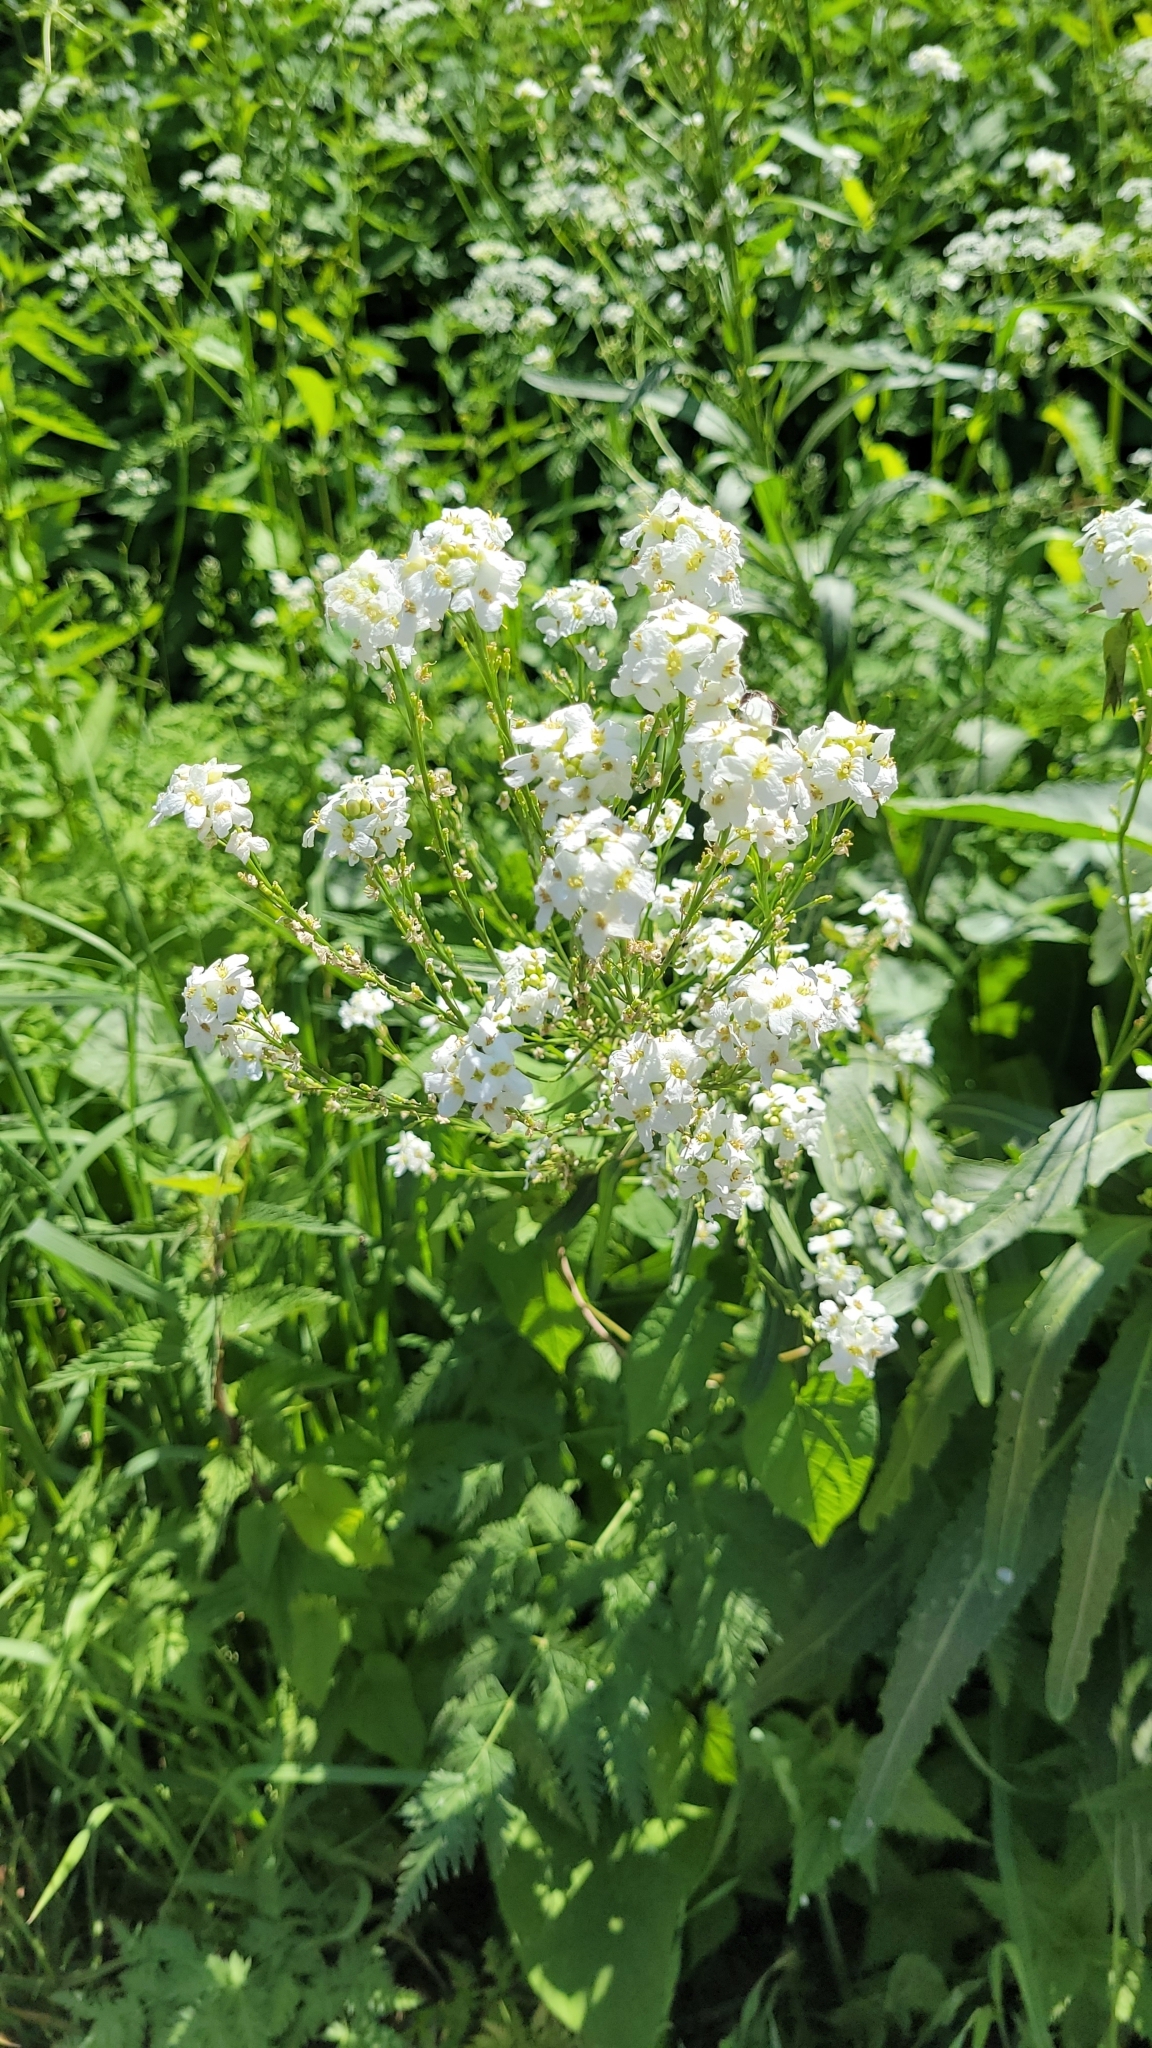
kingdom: Plantae
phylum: Tracheophyta
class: Magnoliopsida
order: Brassicales
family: Brassicaceae
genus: Armoracia
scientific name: Armoracia rusticana
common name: Horseradish
